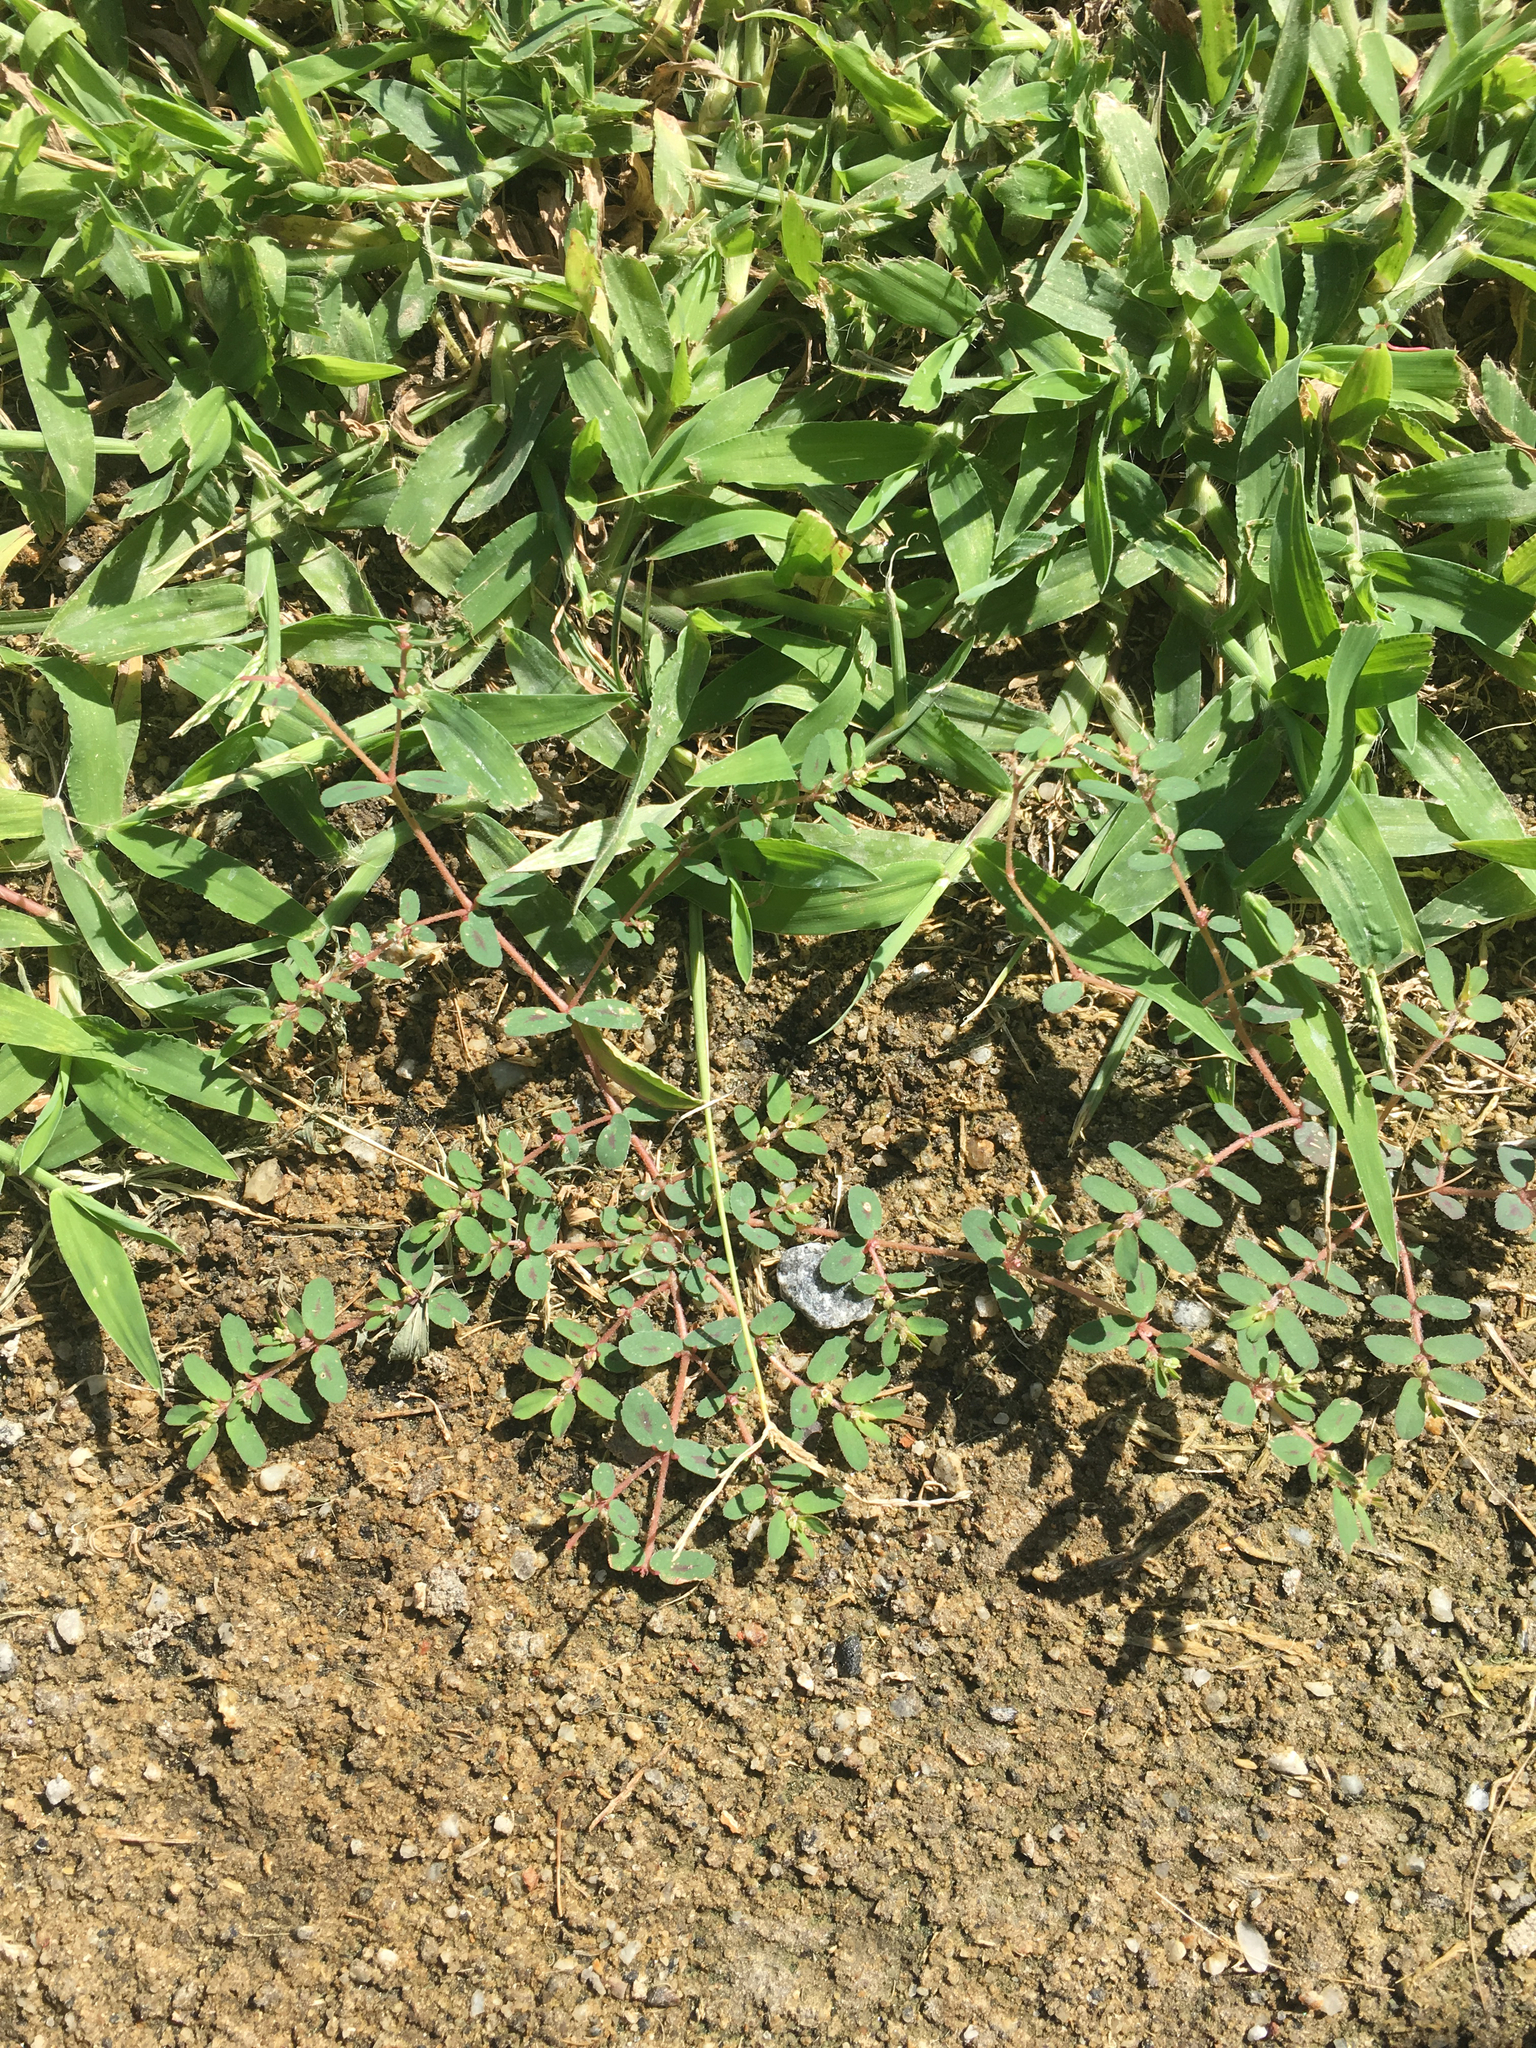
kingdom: Plantae
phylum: Tracheophyta
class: Magnoliopsida
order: Malpighiales
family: Euphorbiaceae
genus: Euphorbia
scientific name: Euphorbia maculata
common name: Spotted spurge
